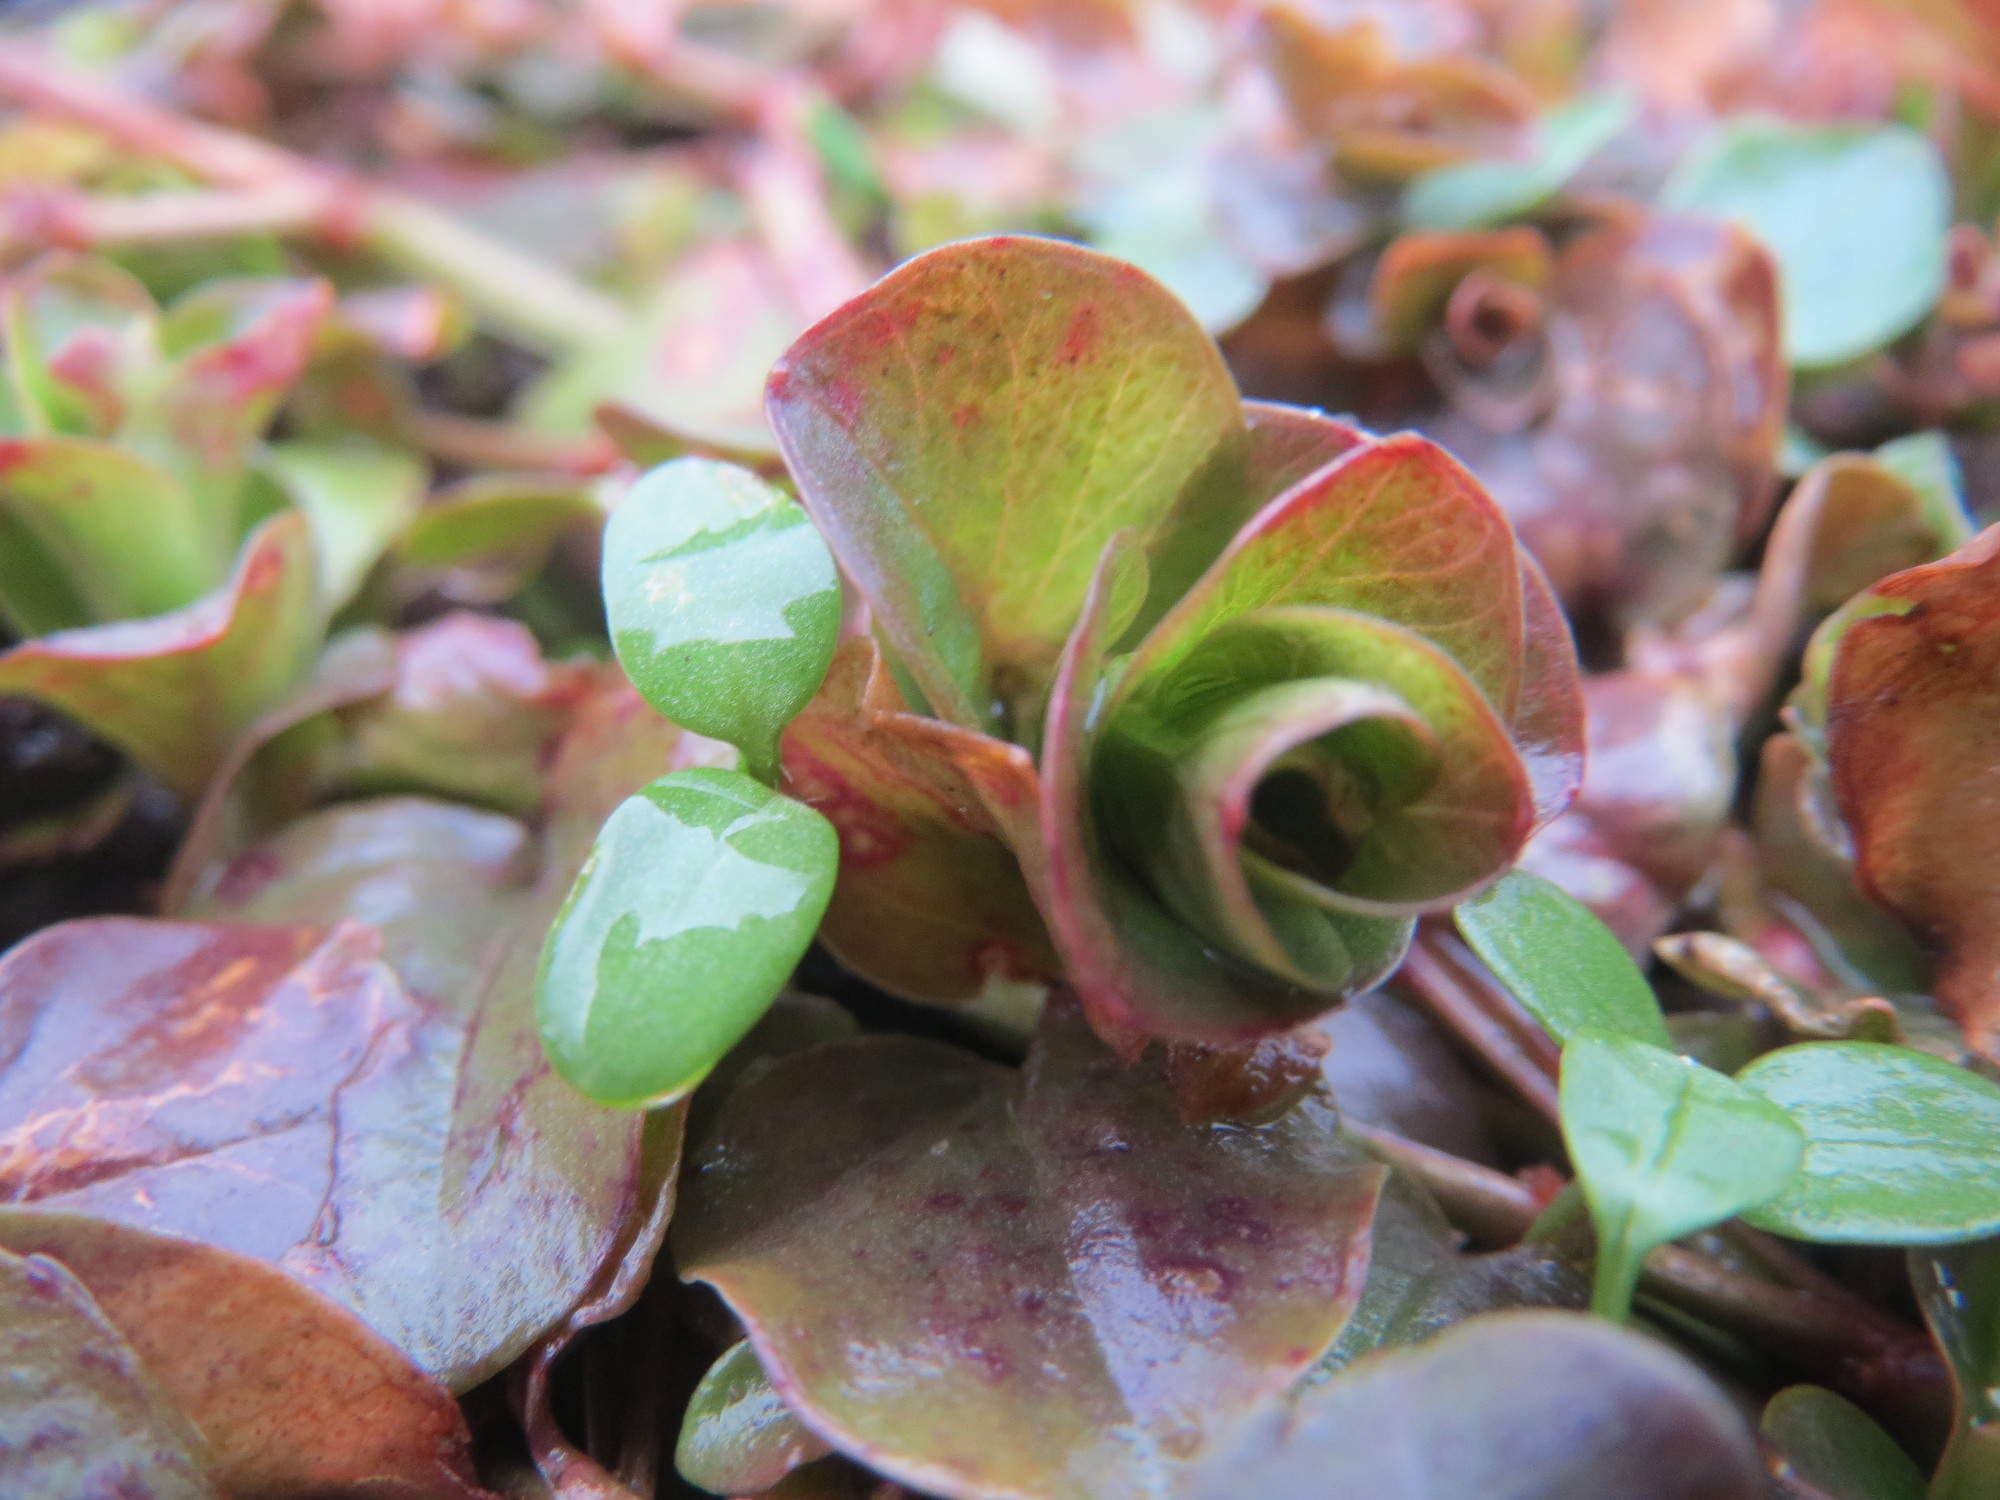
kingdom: Plantae
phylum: Tracheophyta
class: Magnoliopsida
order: Ericales
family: Primulaceae
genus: Lysimachia
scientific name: Lysimachia nummularia
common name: Moneywort
